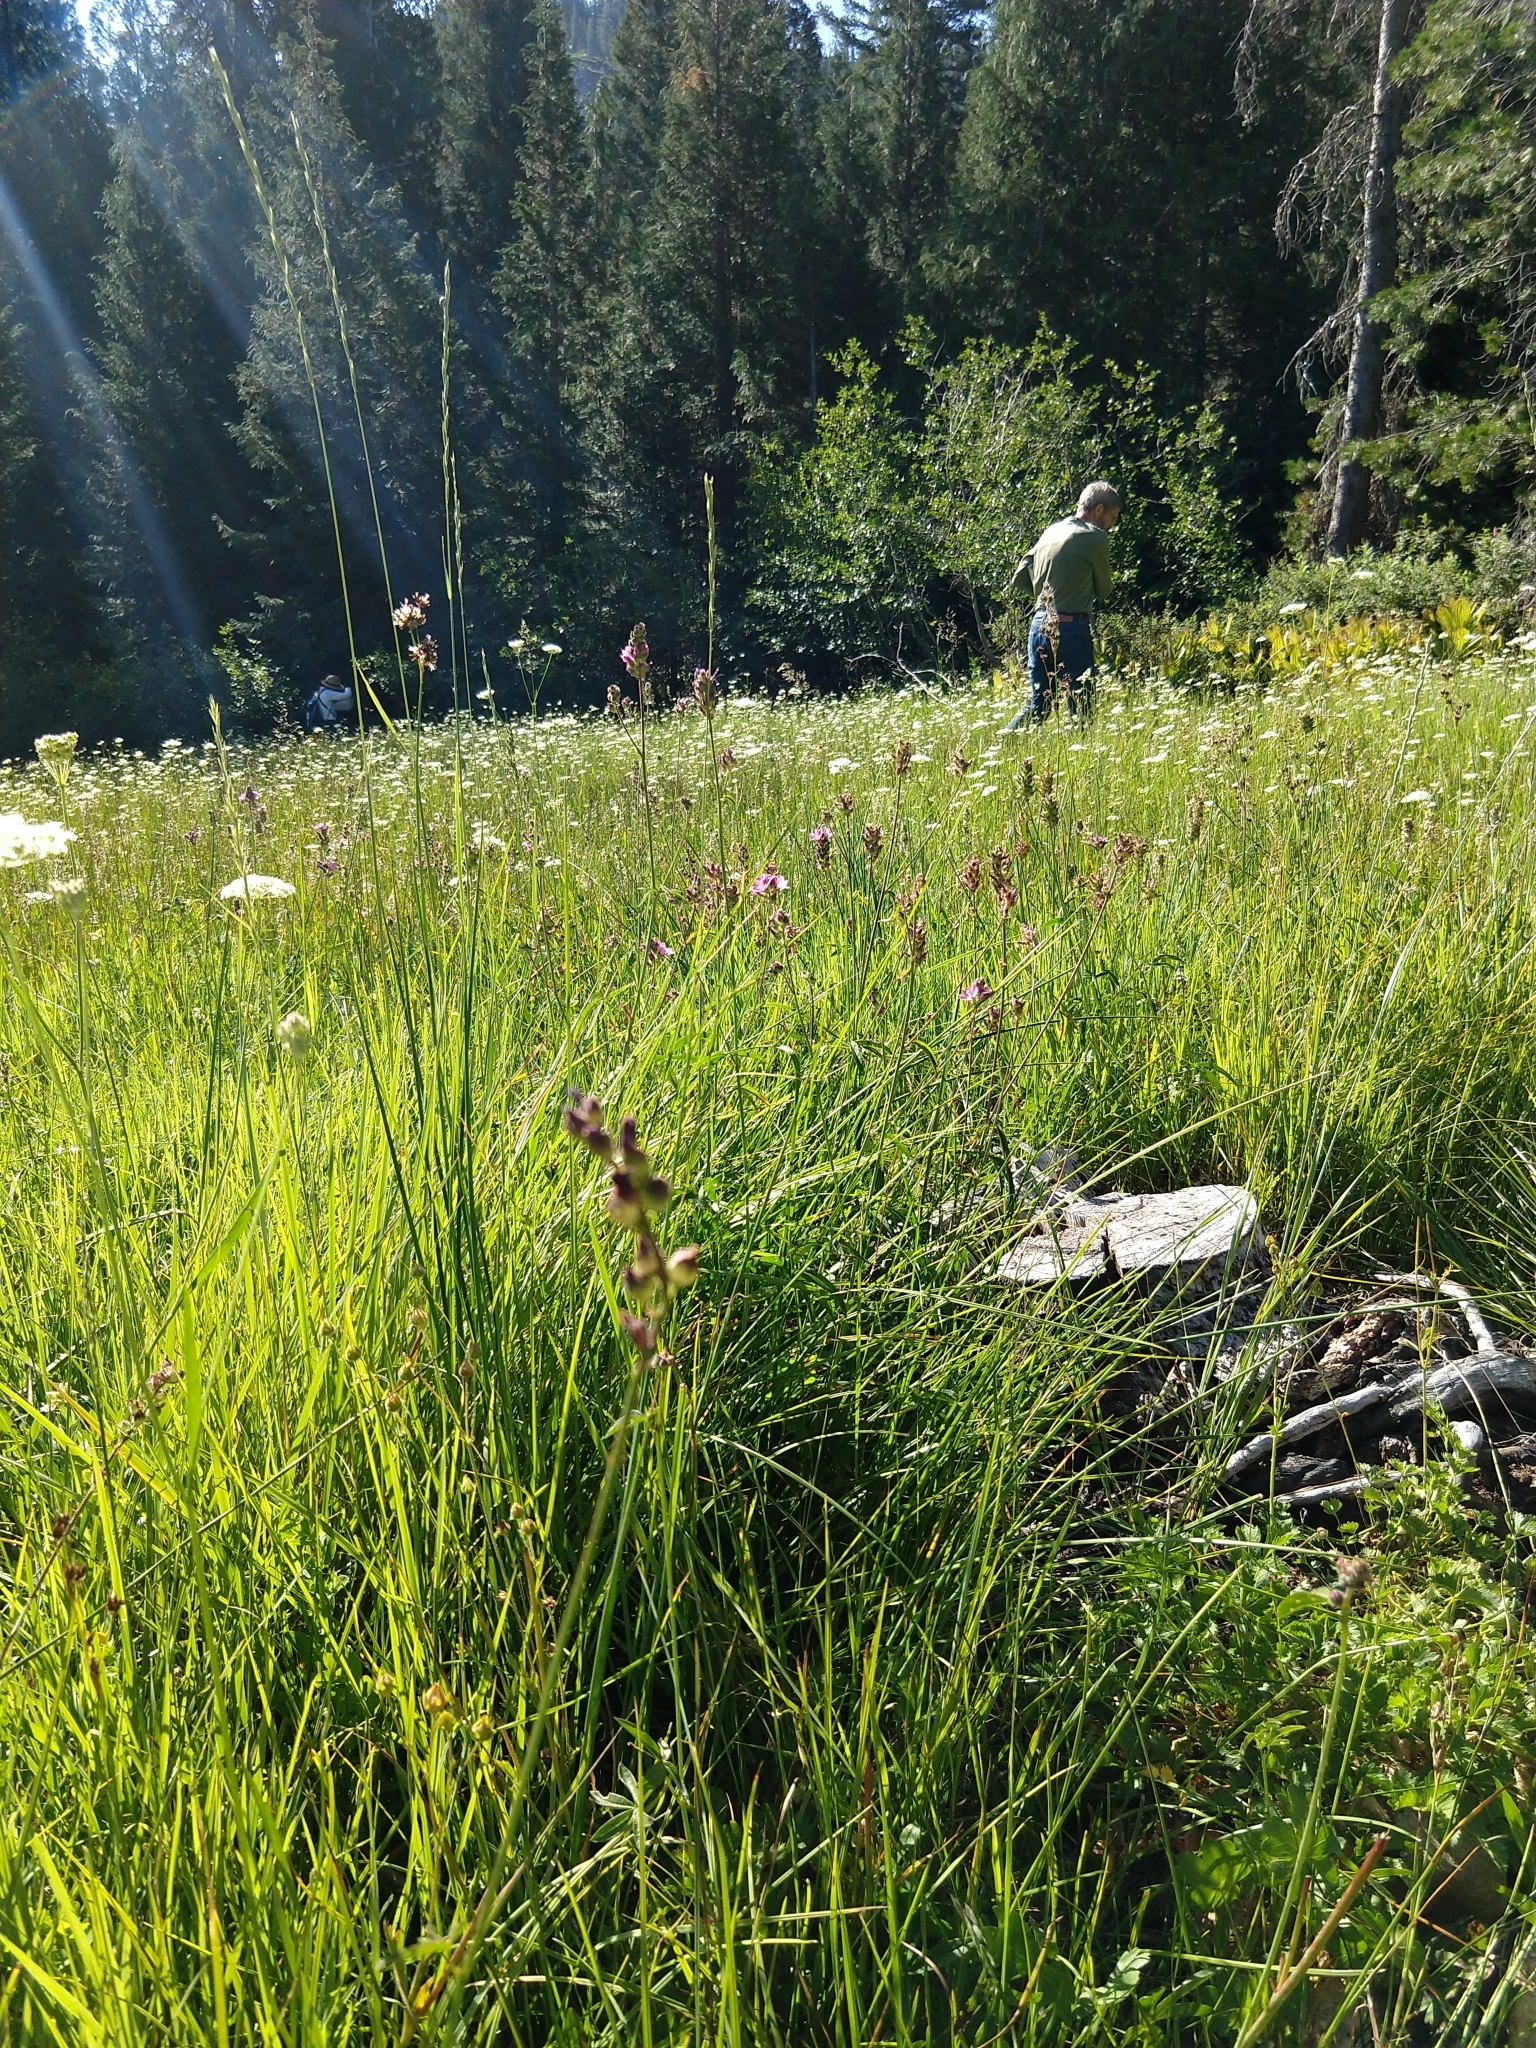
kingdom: Plantae
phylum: Tracheophyta
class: Magnoliopsida
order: Malvales
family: Malvaceae
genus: Sidalcea
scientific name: Sidalcea oregana
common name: Oregon checker-mallow
